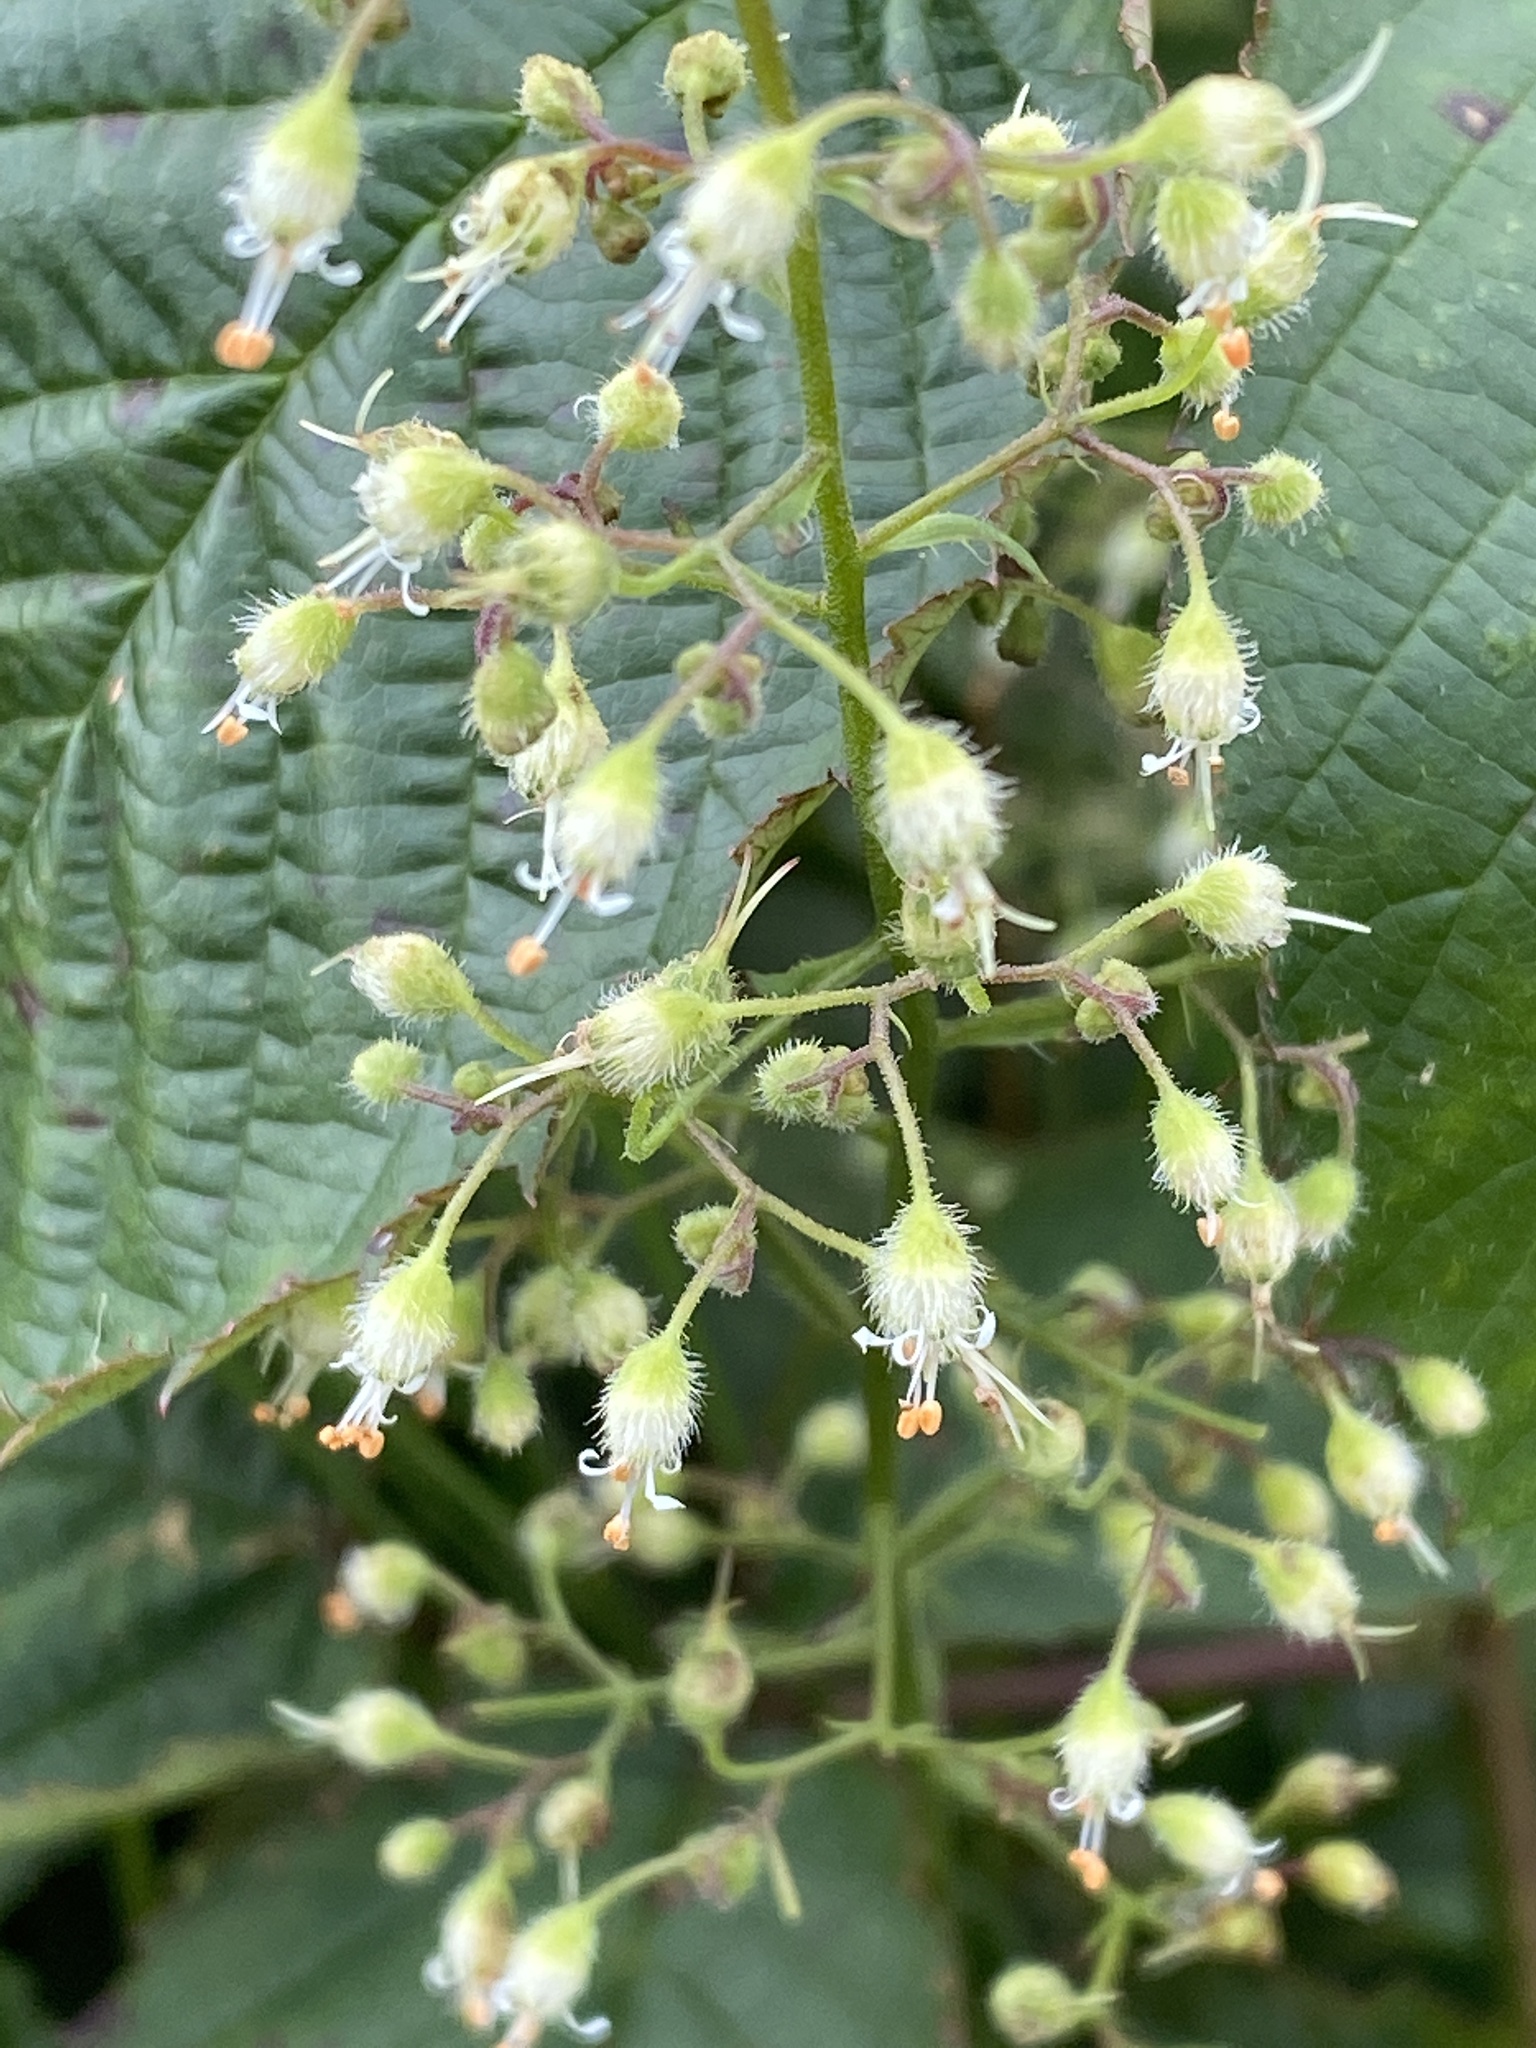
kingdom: Plantae
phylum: Tracheophyta
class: Magnoliopsida
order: Saxifragales
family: Saxifragaceae
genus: Heuchera
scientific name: Heuchera villosa
